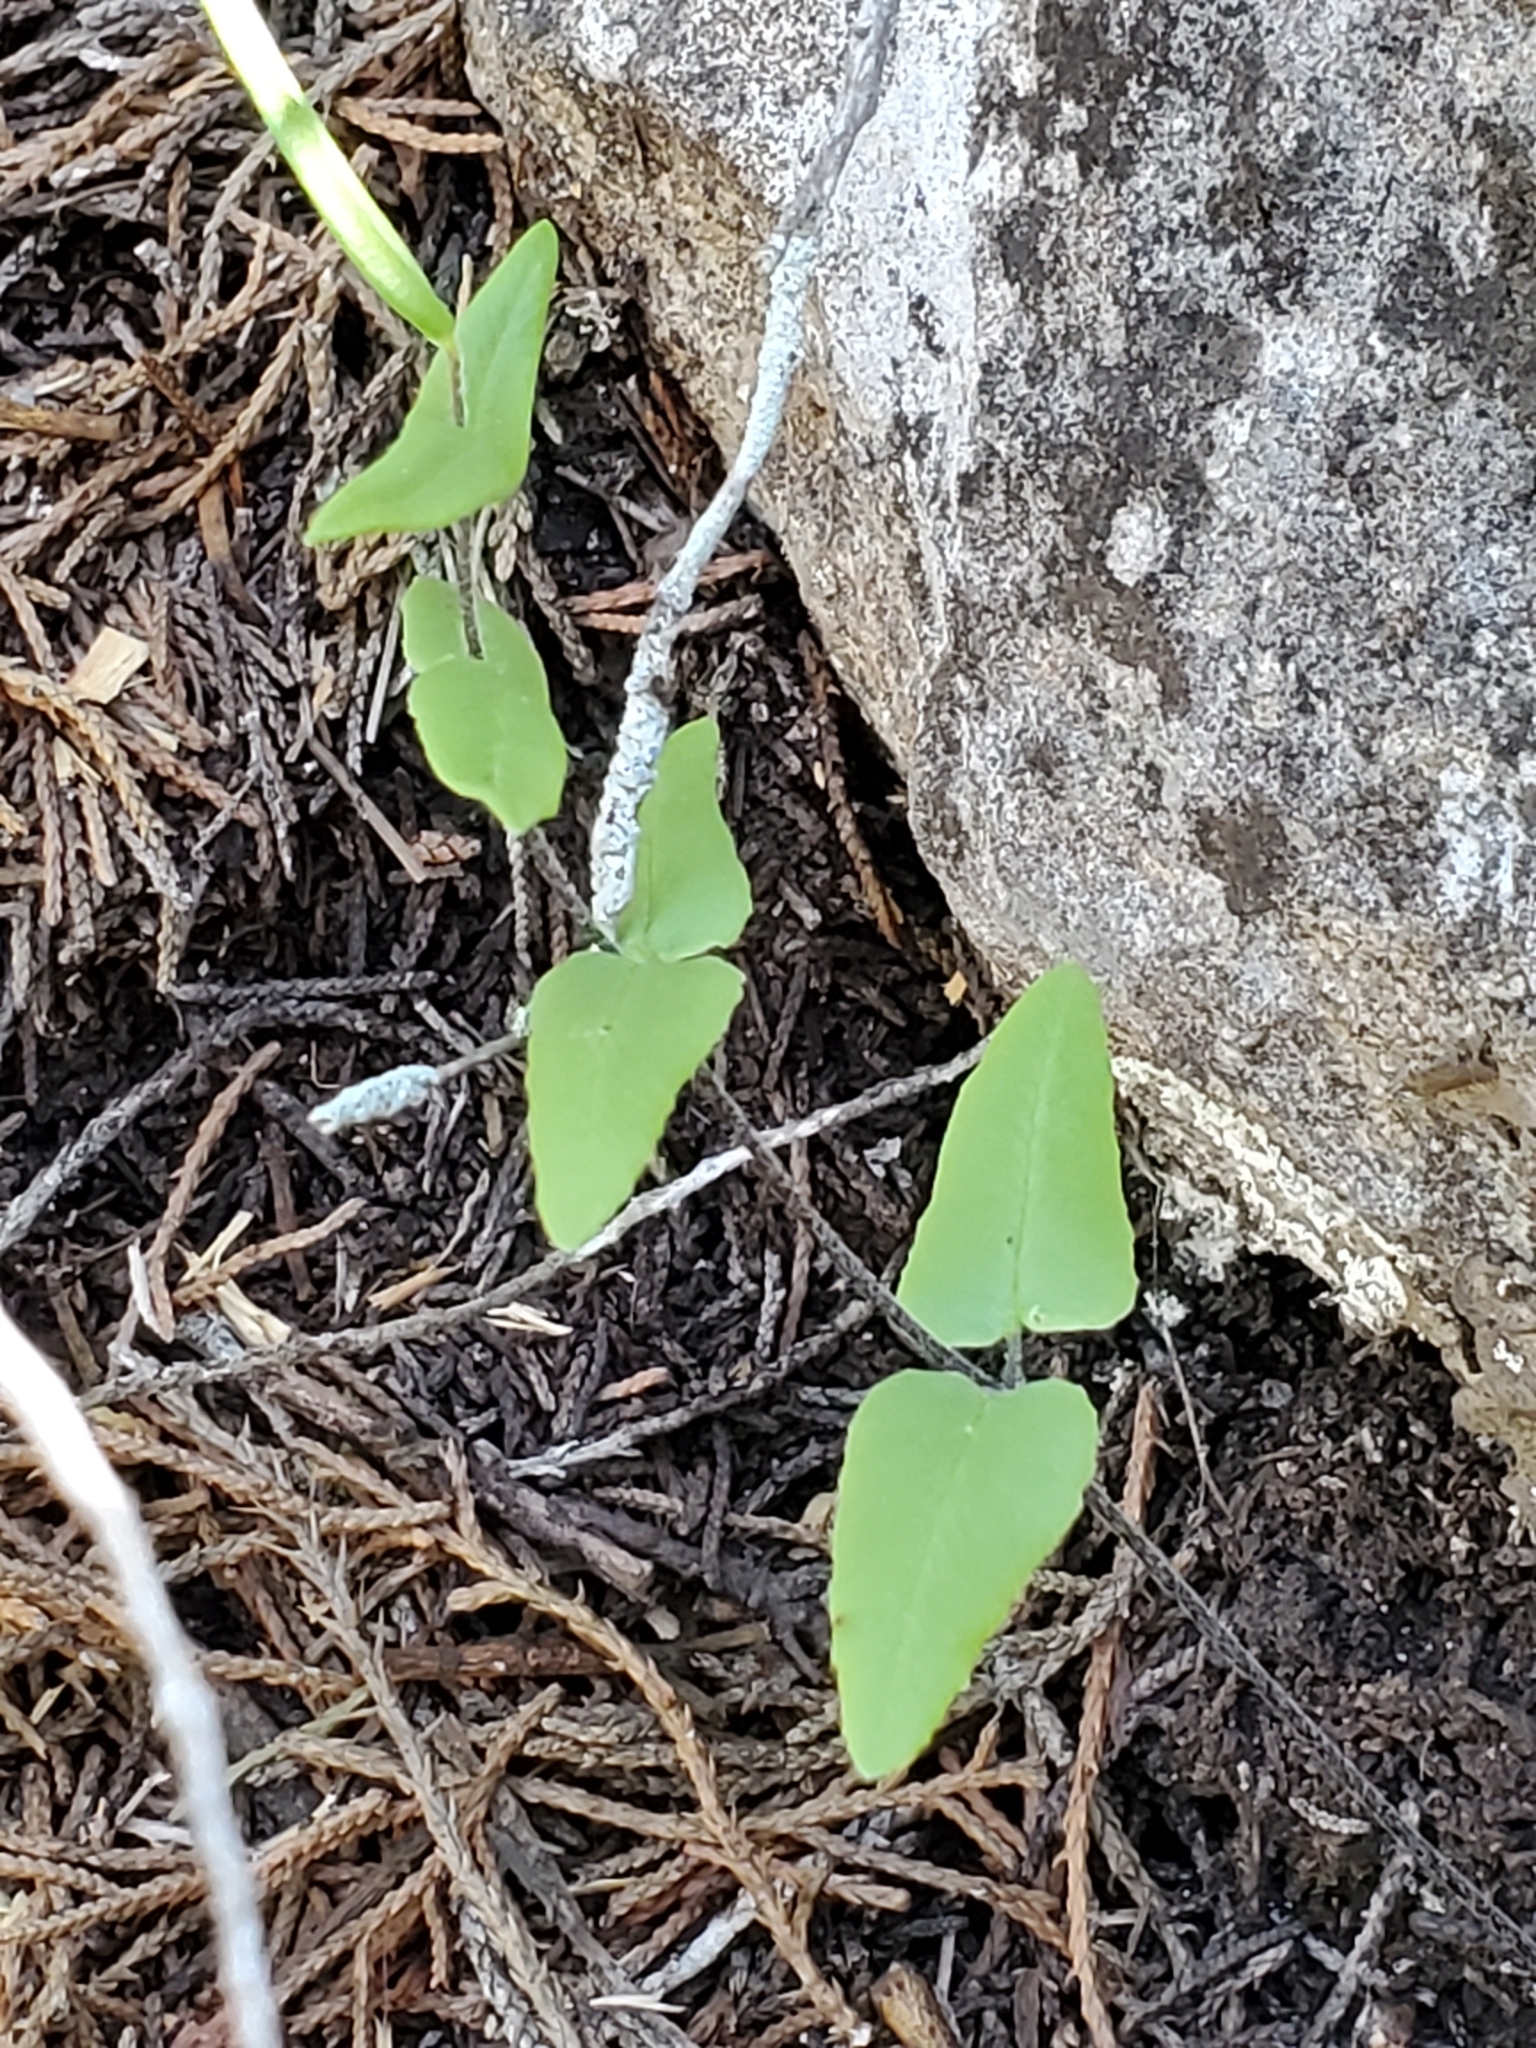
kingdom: Plantae
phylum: Tracheophyta
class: Polypodiopsida
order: Polypodiales
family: Pteridaceae
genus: Pellaea
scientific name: Pellaea atropurpurea
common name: Hairy cliffbrake
